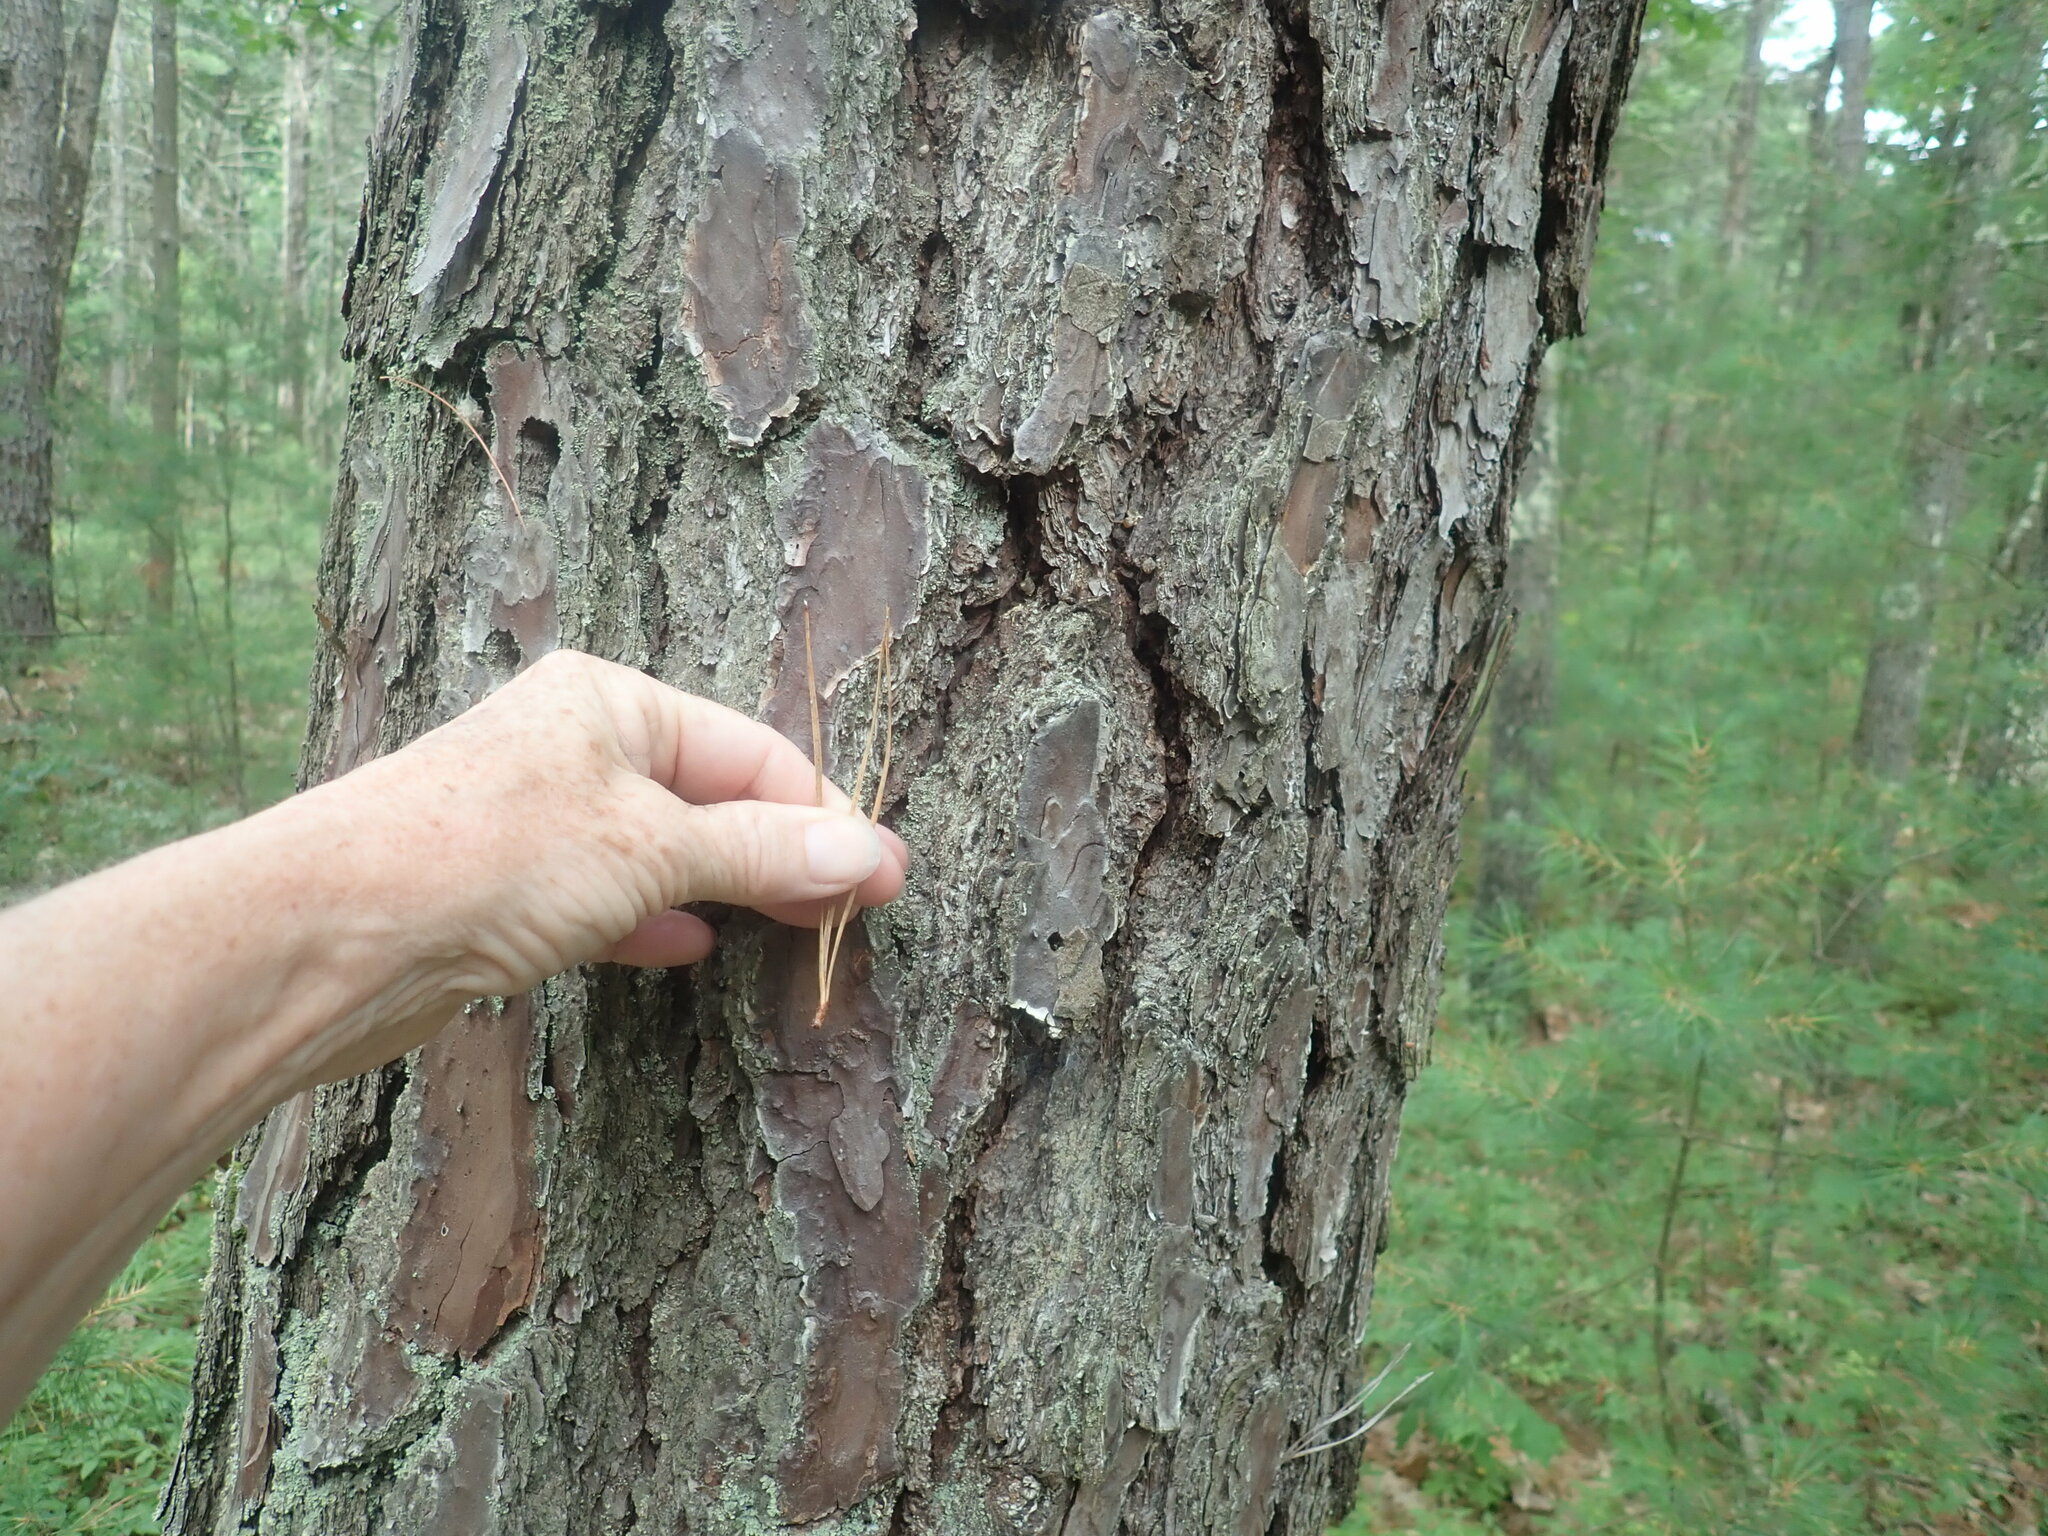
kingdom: Plantae
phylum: Tracheophyta
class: Pinopsida
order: Pinales
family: Pinaceae
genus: Pinus
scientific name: Pinus rigida
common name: Pitch pine
